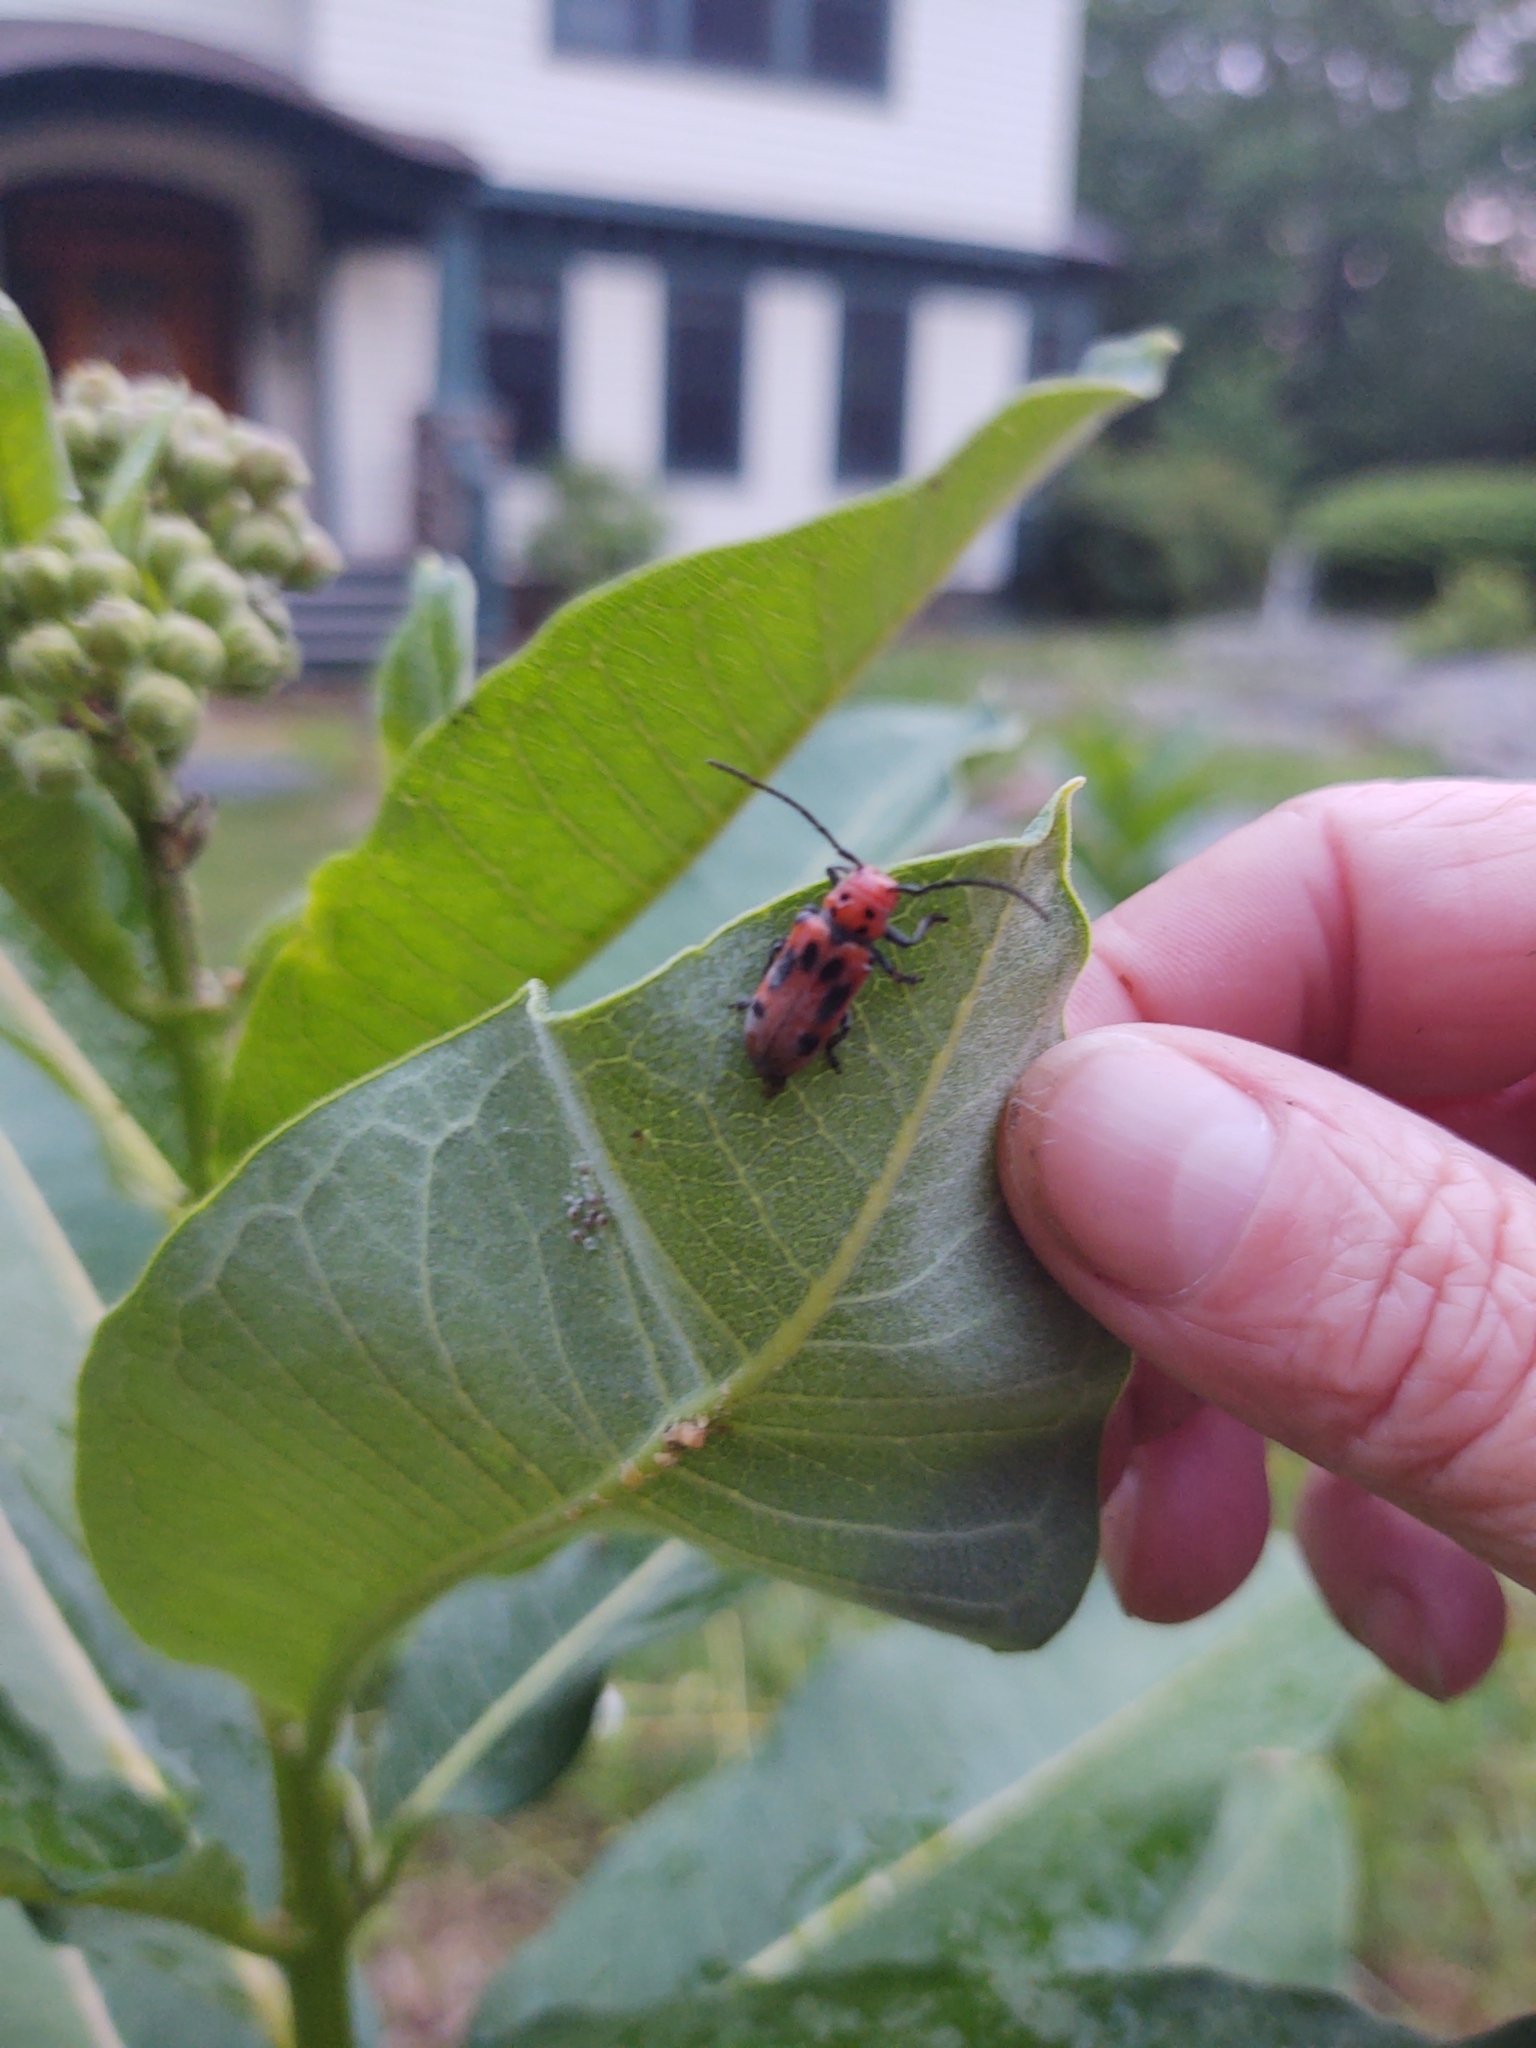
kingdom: Animalia
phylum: Arthropoda
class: Insecta
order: Coleoptera
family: Cerambycidae
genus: Tetraopes
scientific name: Tetraopes tetrophthalmus
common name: Red milkweed beetle
